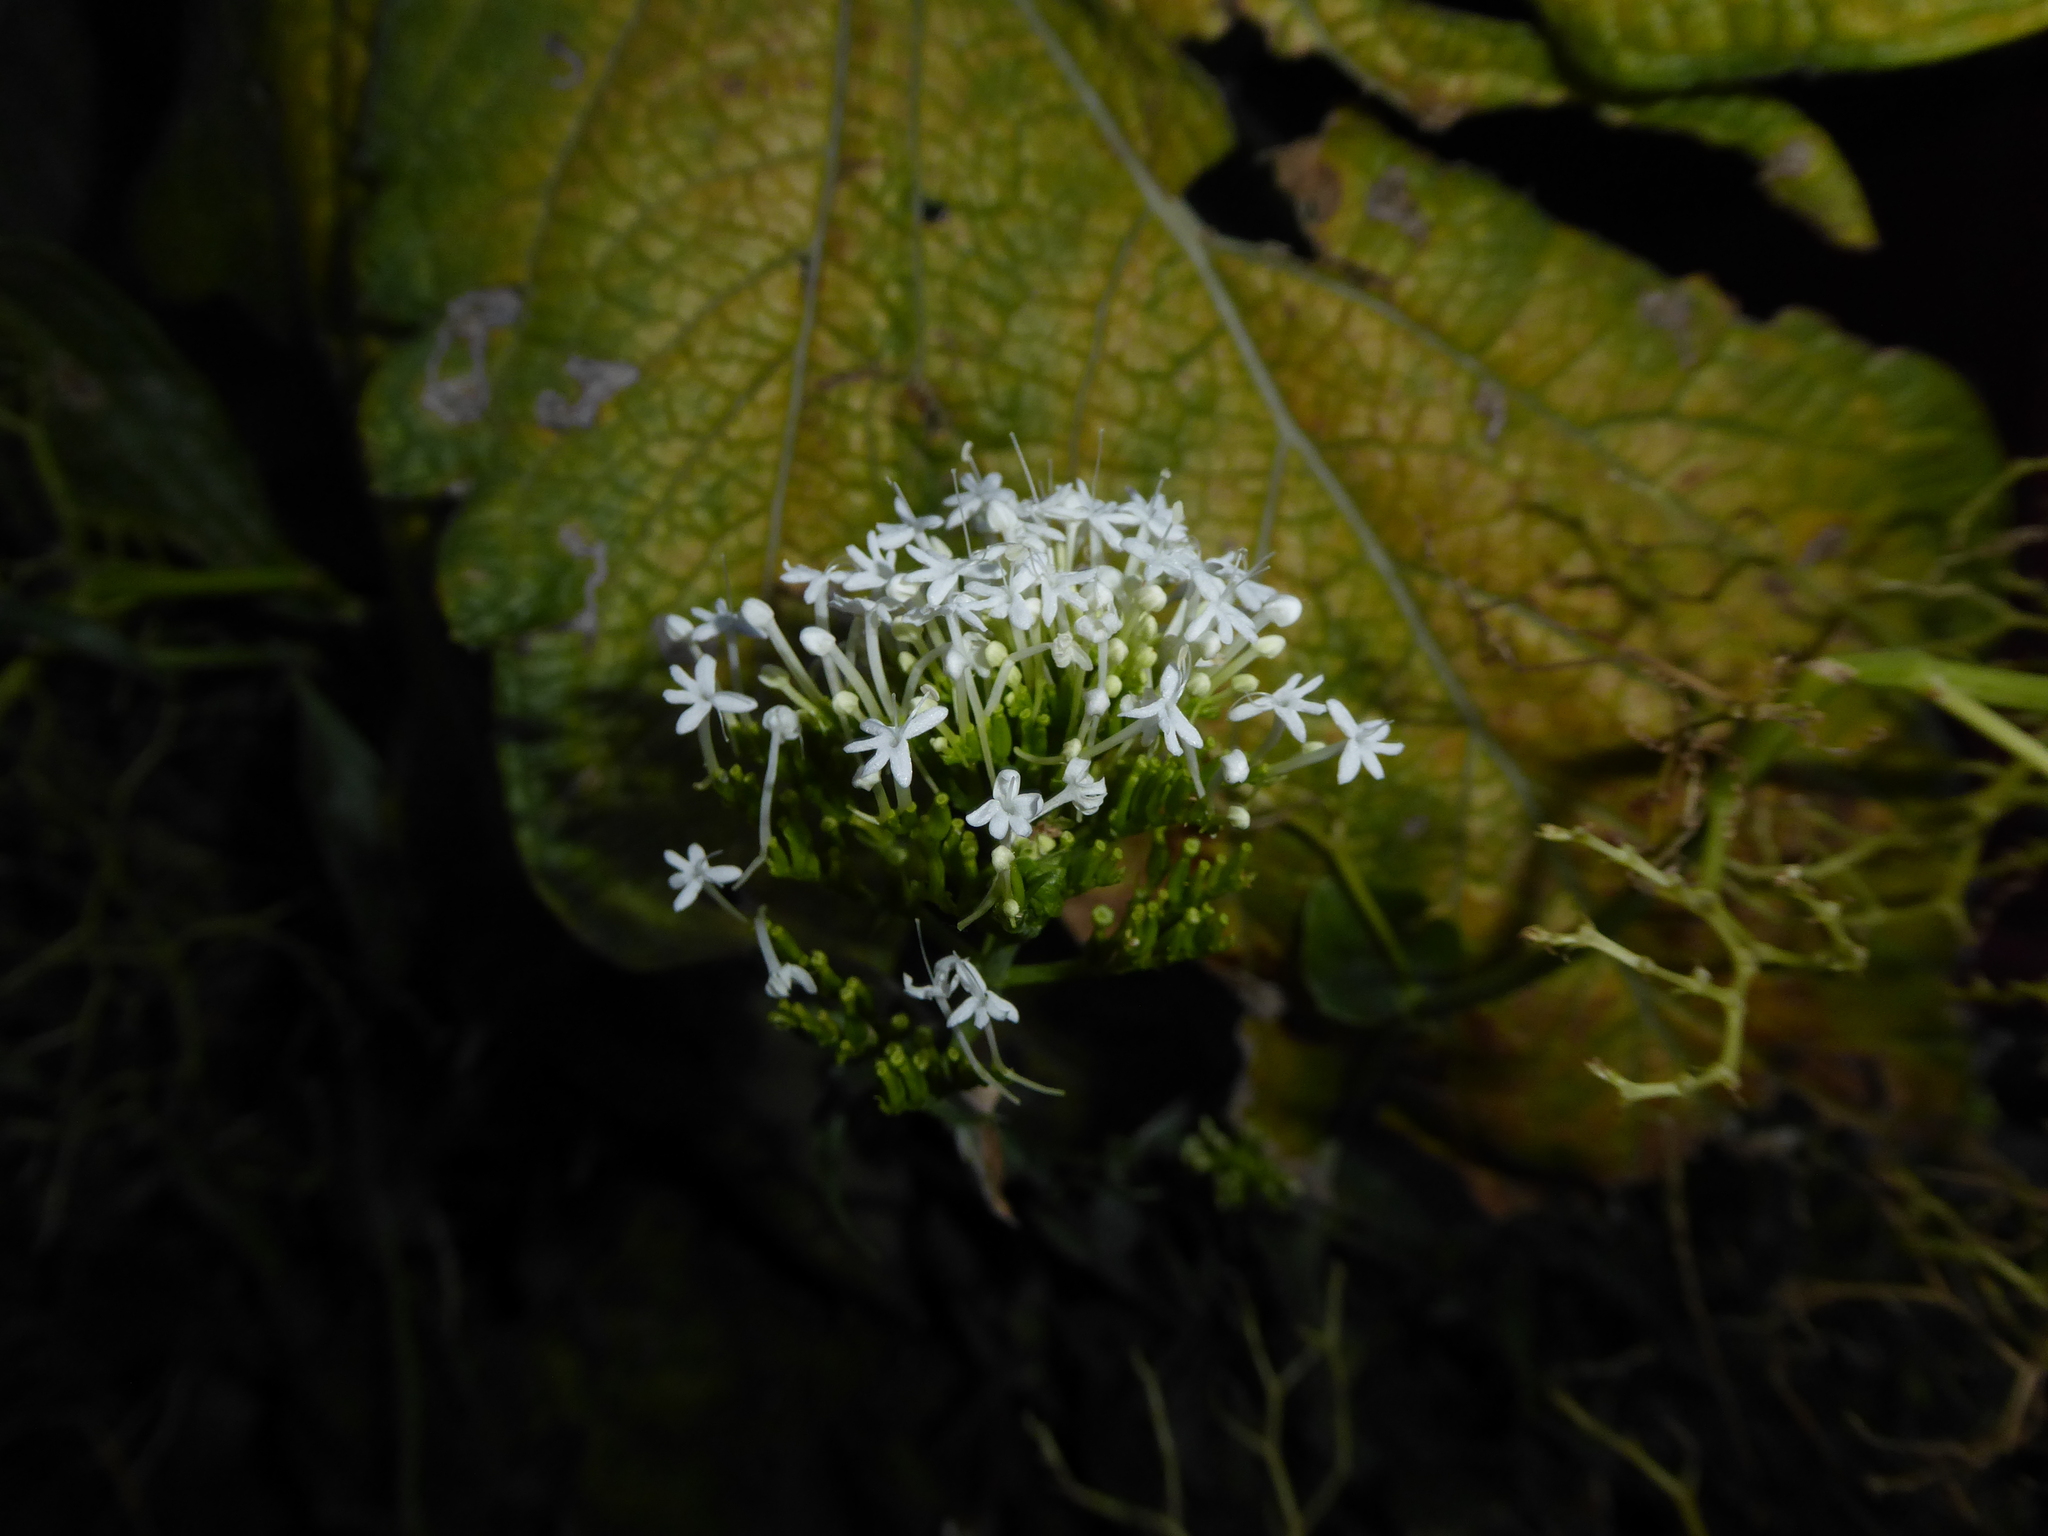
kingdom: Plantae
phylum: Tracheophyta
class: Magnoliopsida
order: Dipsacales
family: Caprifoliaceae
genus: Centranthus
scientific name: Centranthus ruber
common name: Red valerian
